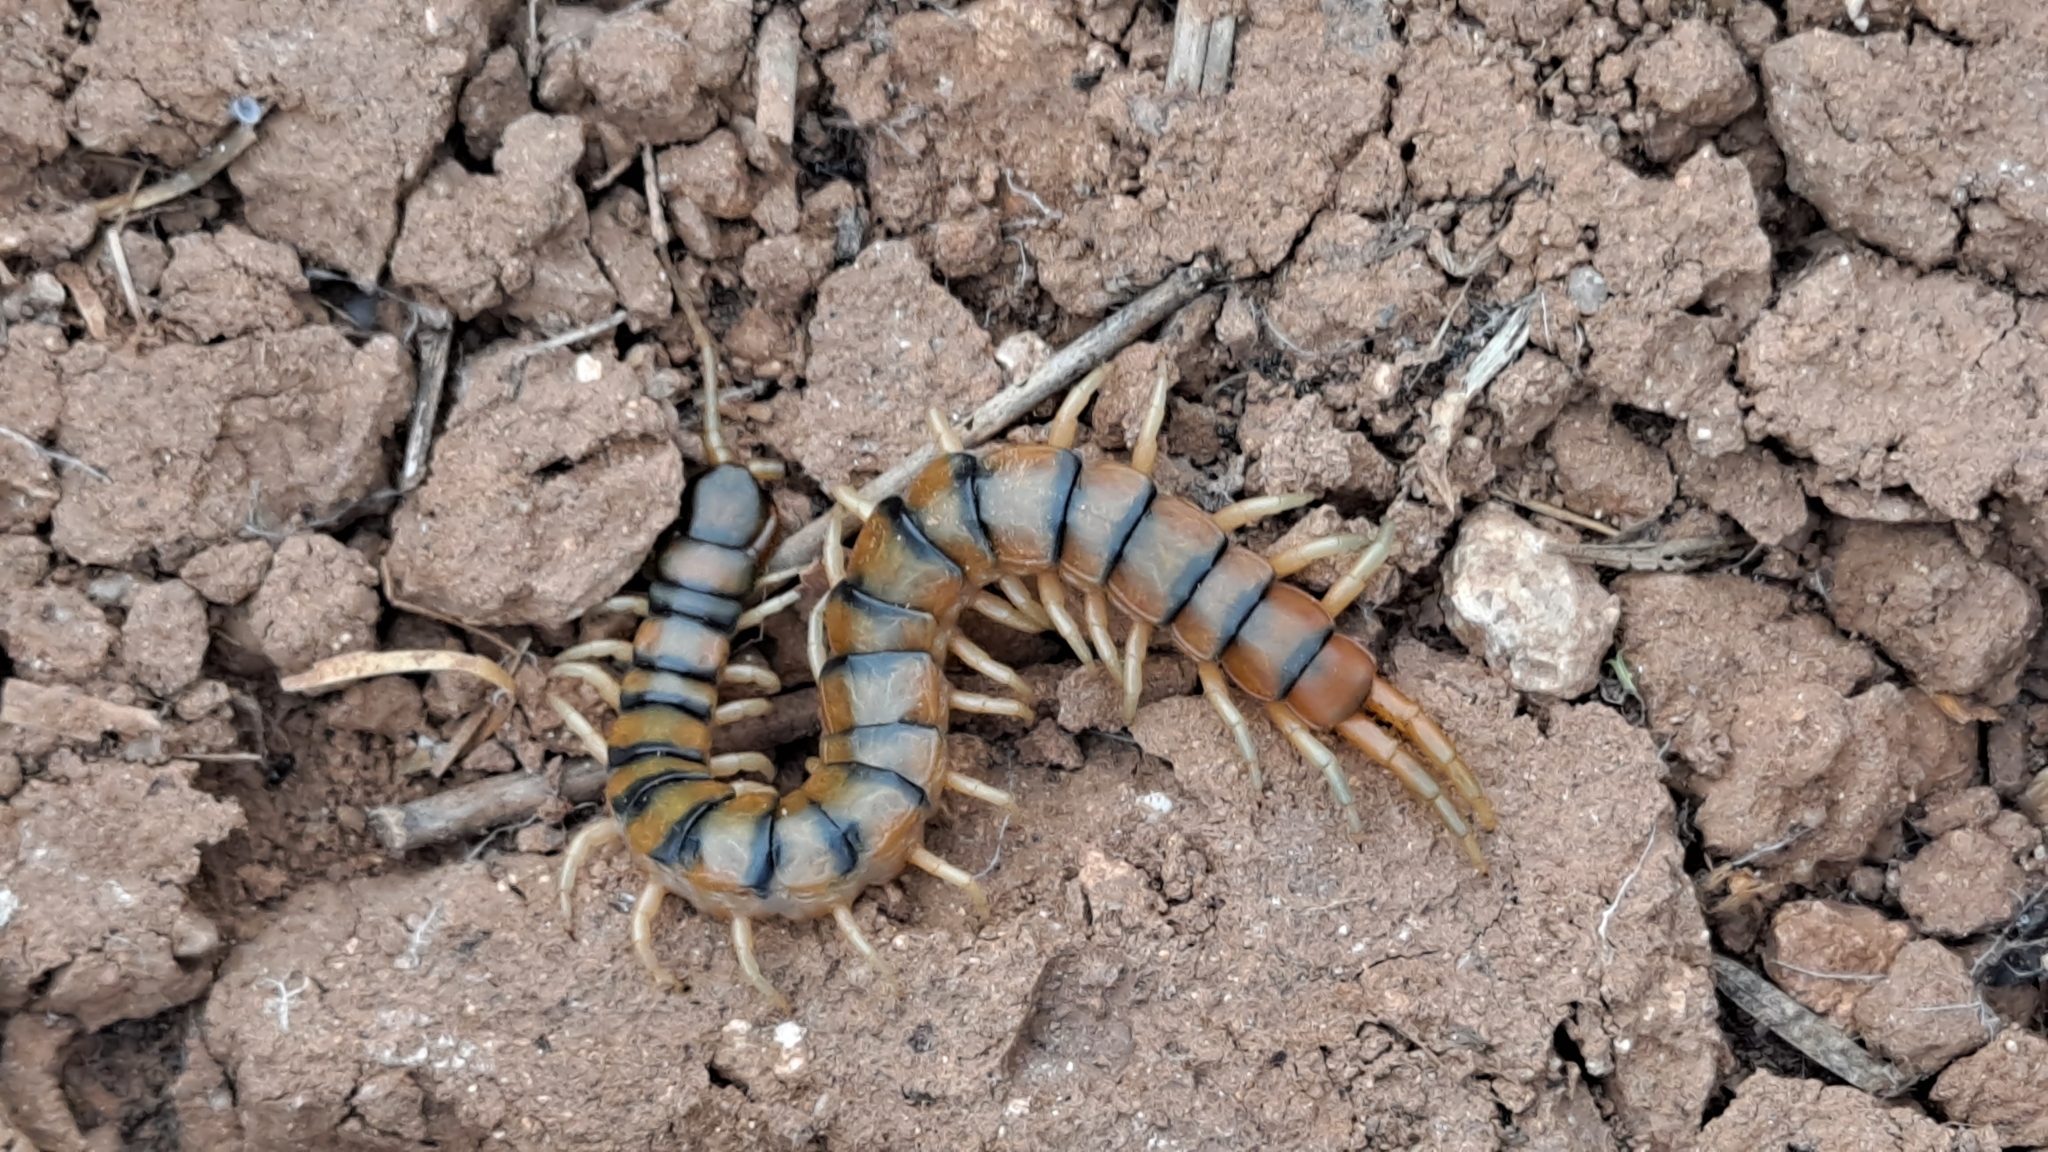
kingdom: Animalia
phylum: Arthropoda
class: Chilopoda
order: Scolopendromorpha
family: Scolopendridae
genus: Scolopendra
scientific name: Scolopendra cingulata
